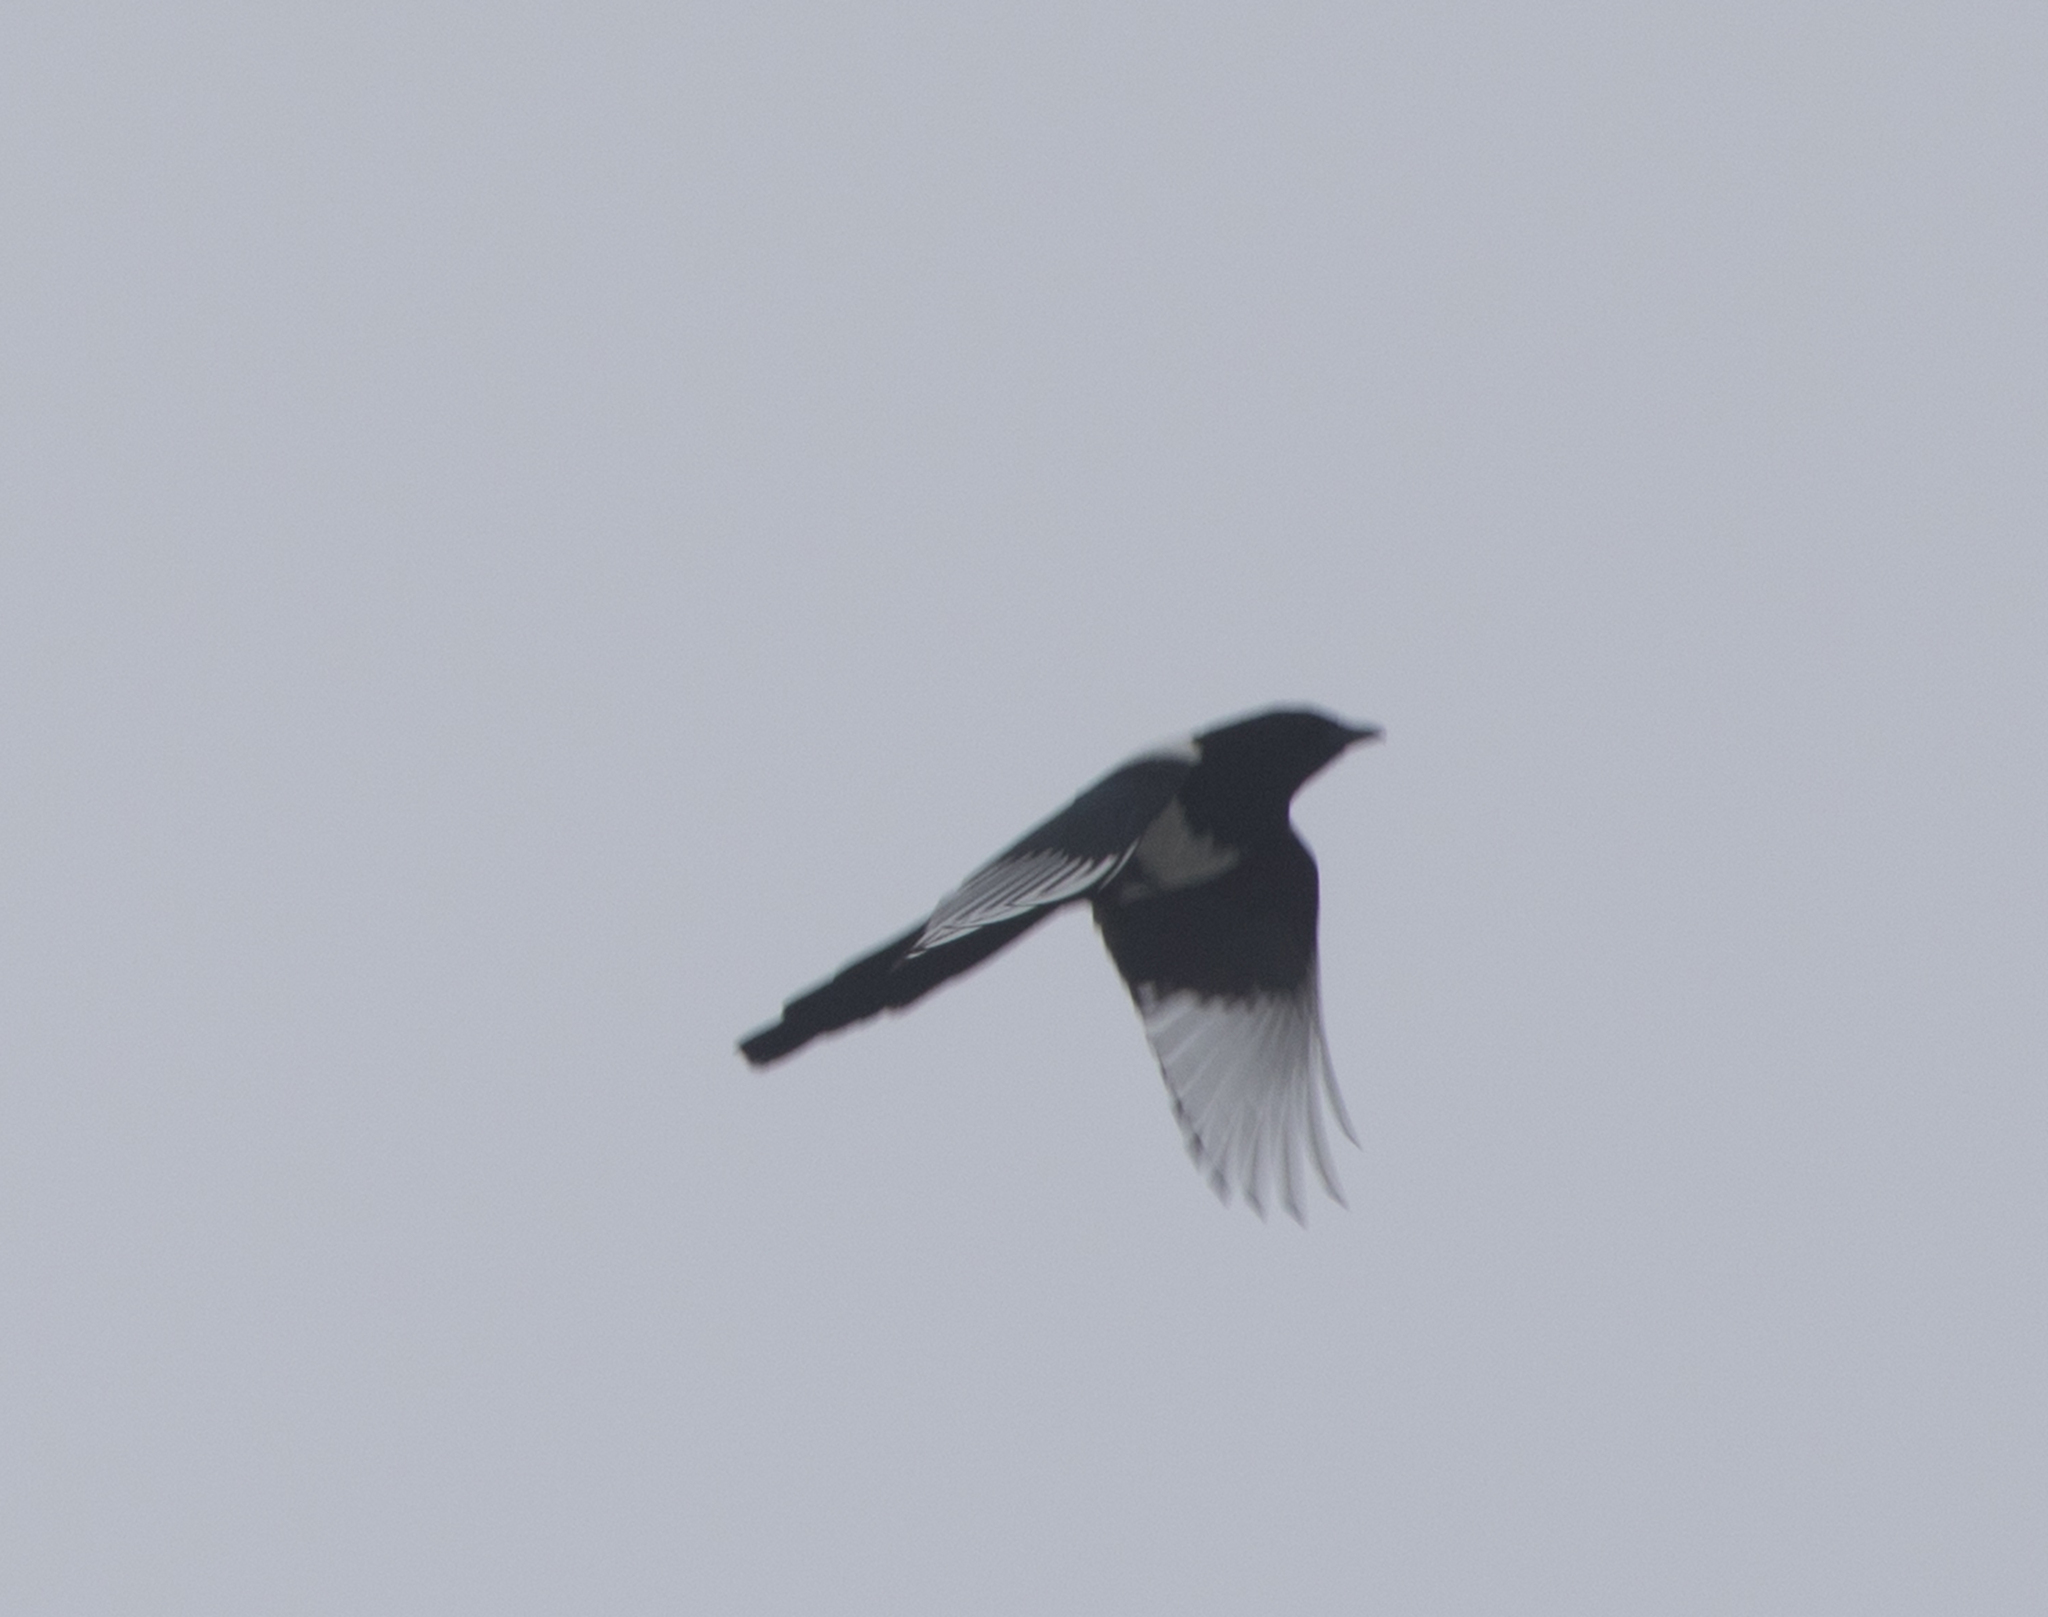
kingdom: Animalia
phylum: Chordata
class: Aves
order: Passeriformes
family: Corvidae
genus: Pica
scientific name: Pica pica
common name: Eurasian magpie
